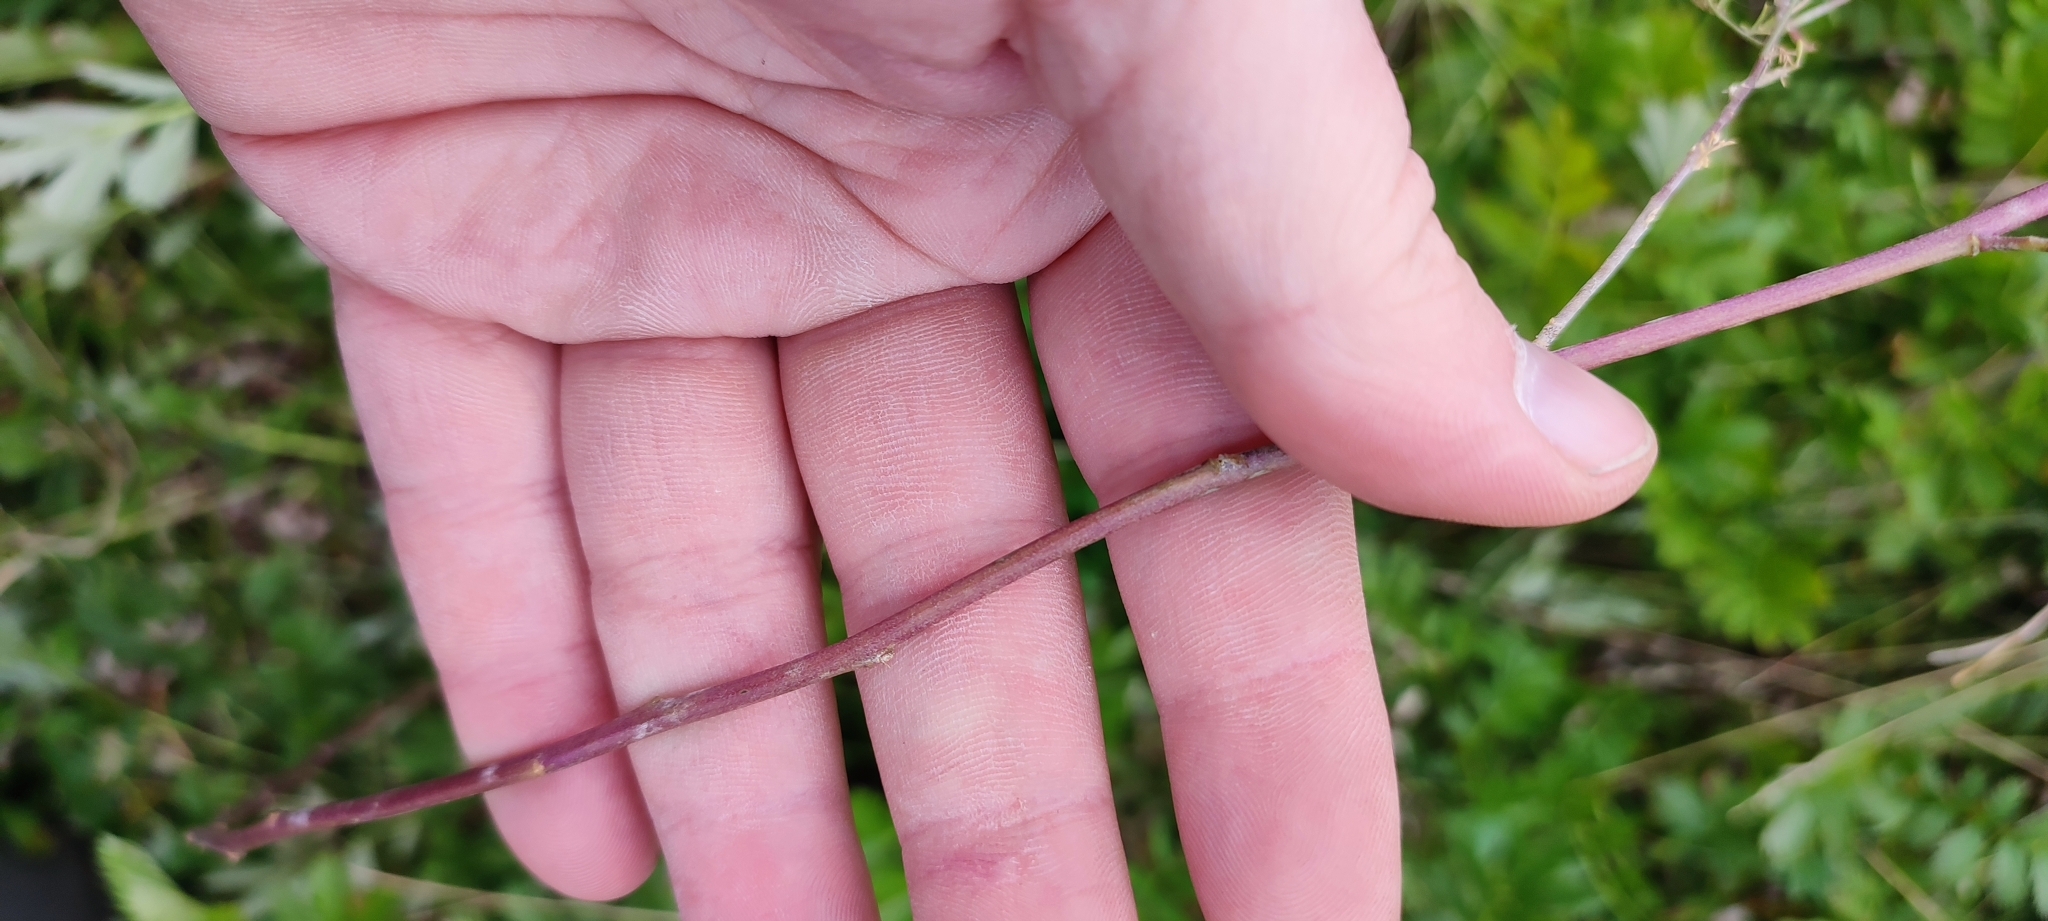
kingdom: Plantae
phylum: Tracheophyta
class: Magnoliopsida
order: Brassicales
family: Brassicaceae
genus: Descurainia
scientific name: Descurainia sophia
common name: Flixweed
